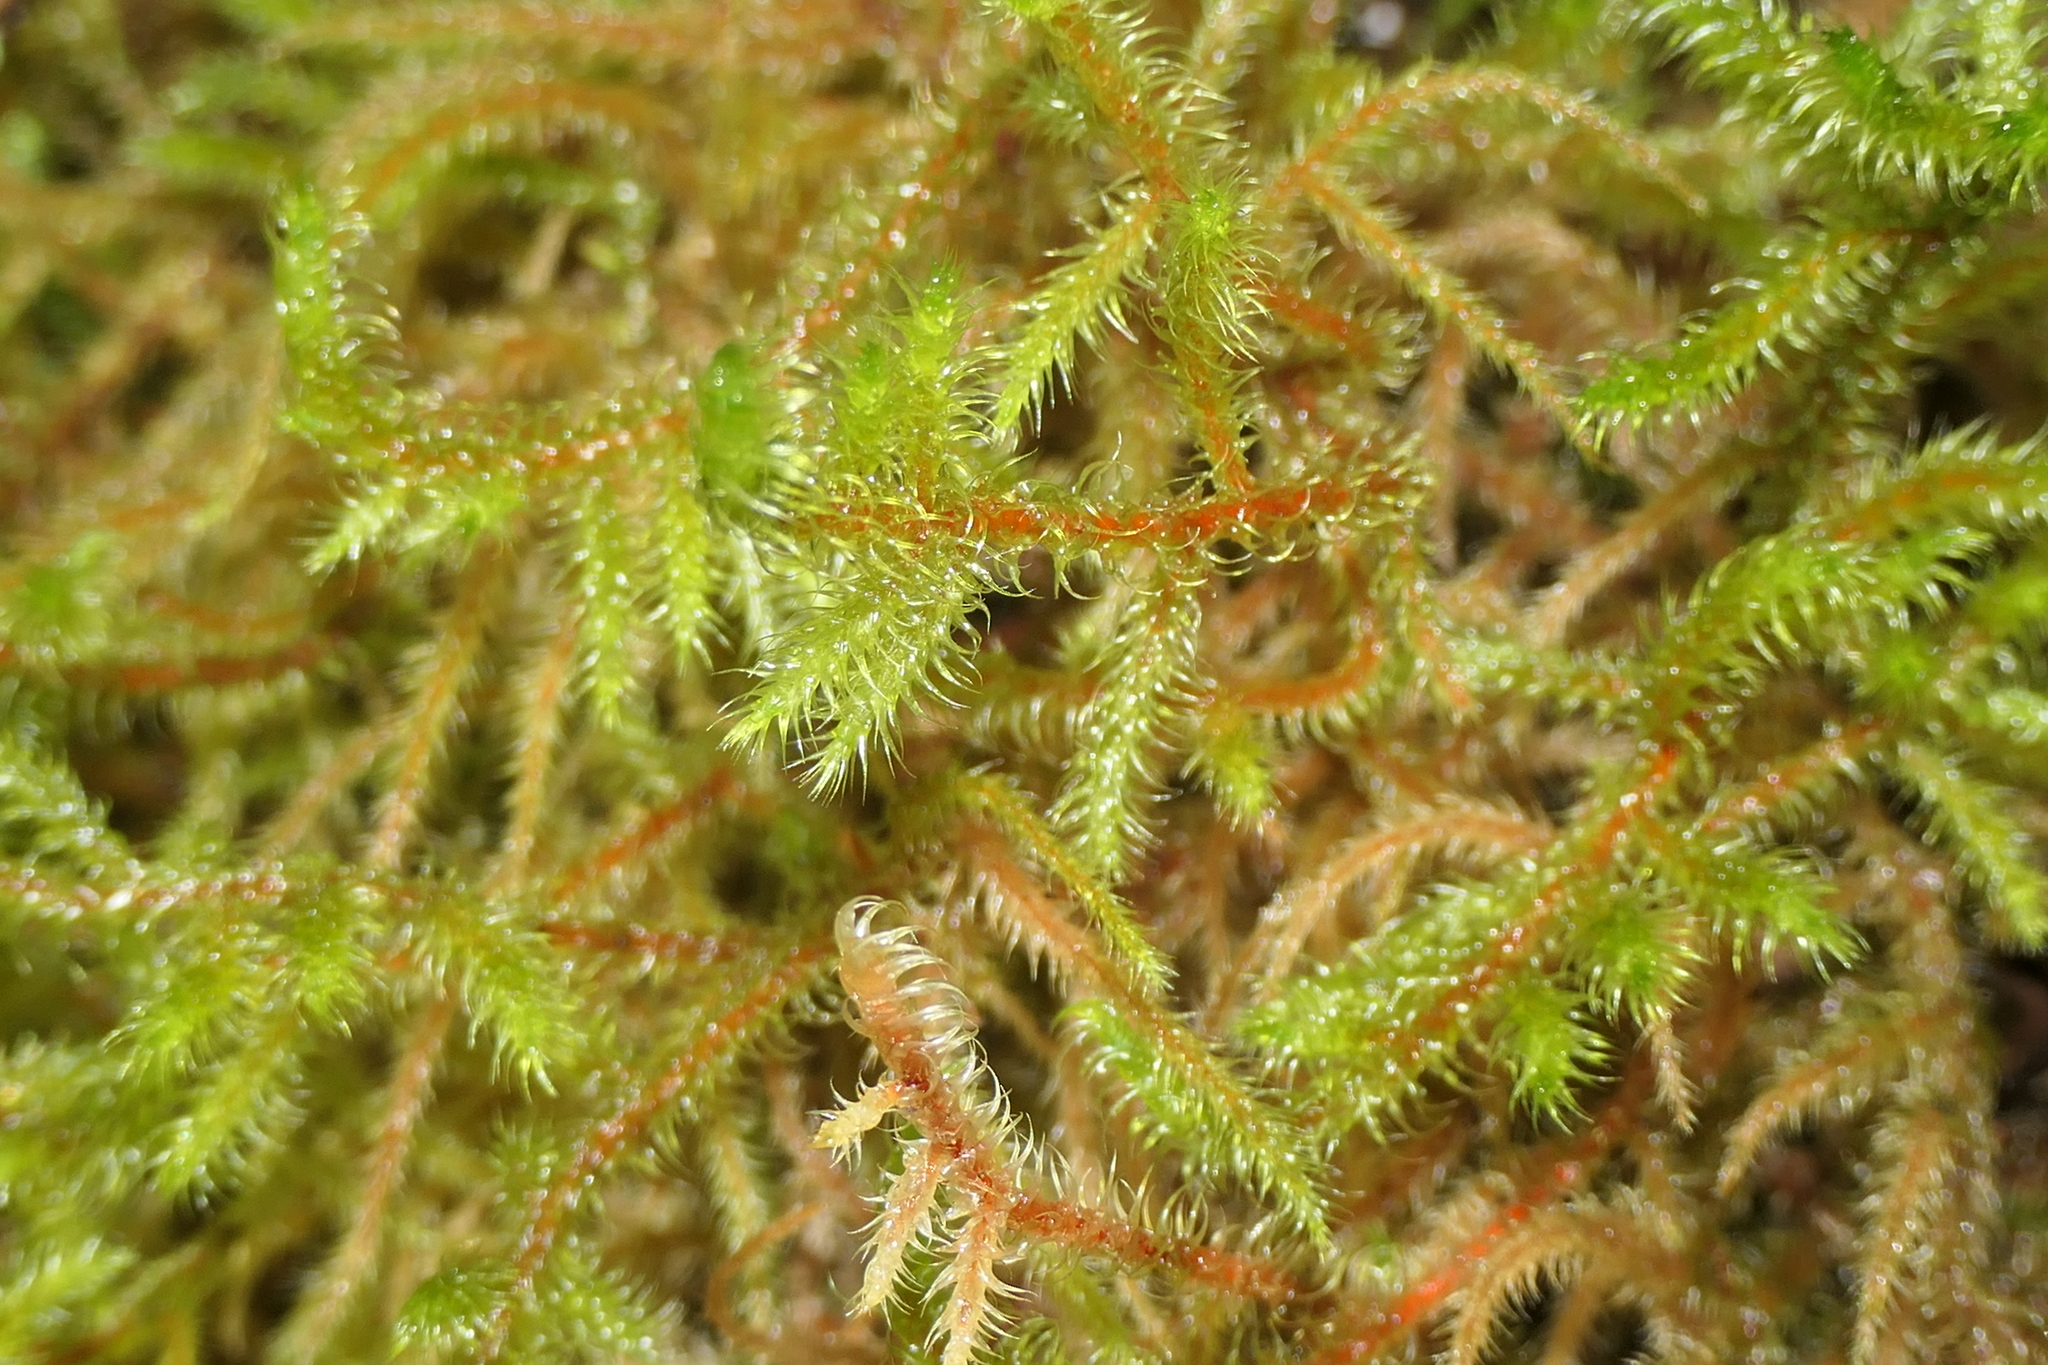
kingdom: Plantae
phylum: Bryophyta
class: Bryopsida
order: Hypnales
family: Hylocomiaceae
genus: Rhytidiadelphus
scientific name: Rhytidiadelphus loreus
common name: Lanky moss
